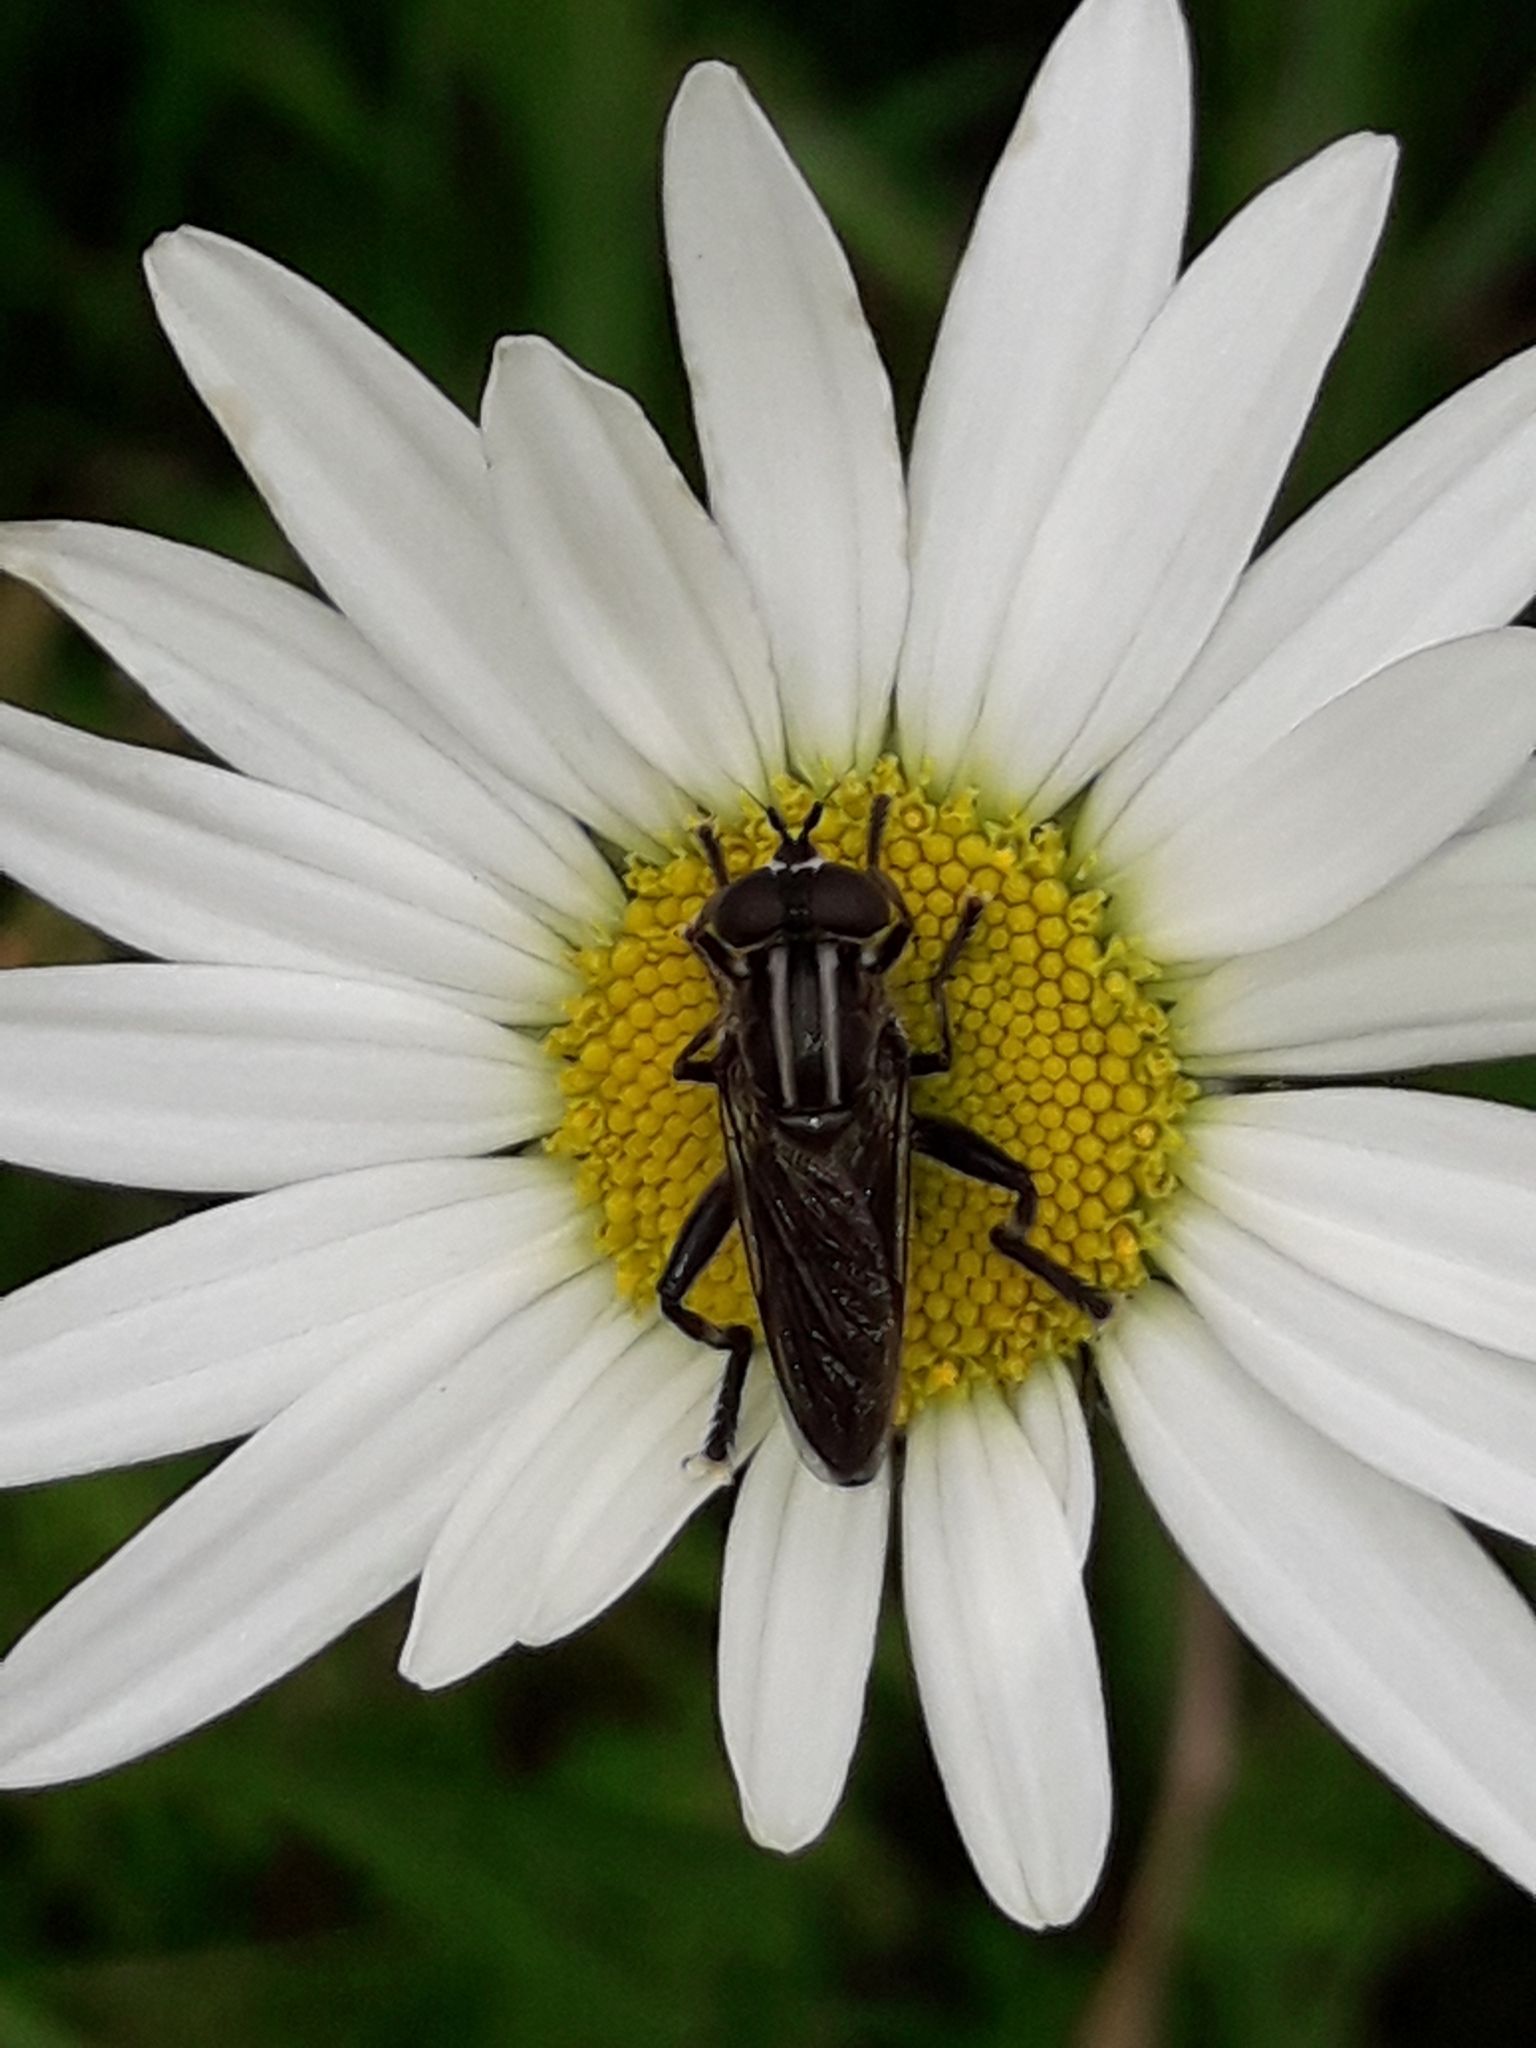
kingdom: Animalia
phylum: Arthropoda
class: Insecta
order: Diptera
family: Syrphidae
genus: Orthoprosopa
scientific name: Orthoprosopa bilineata
